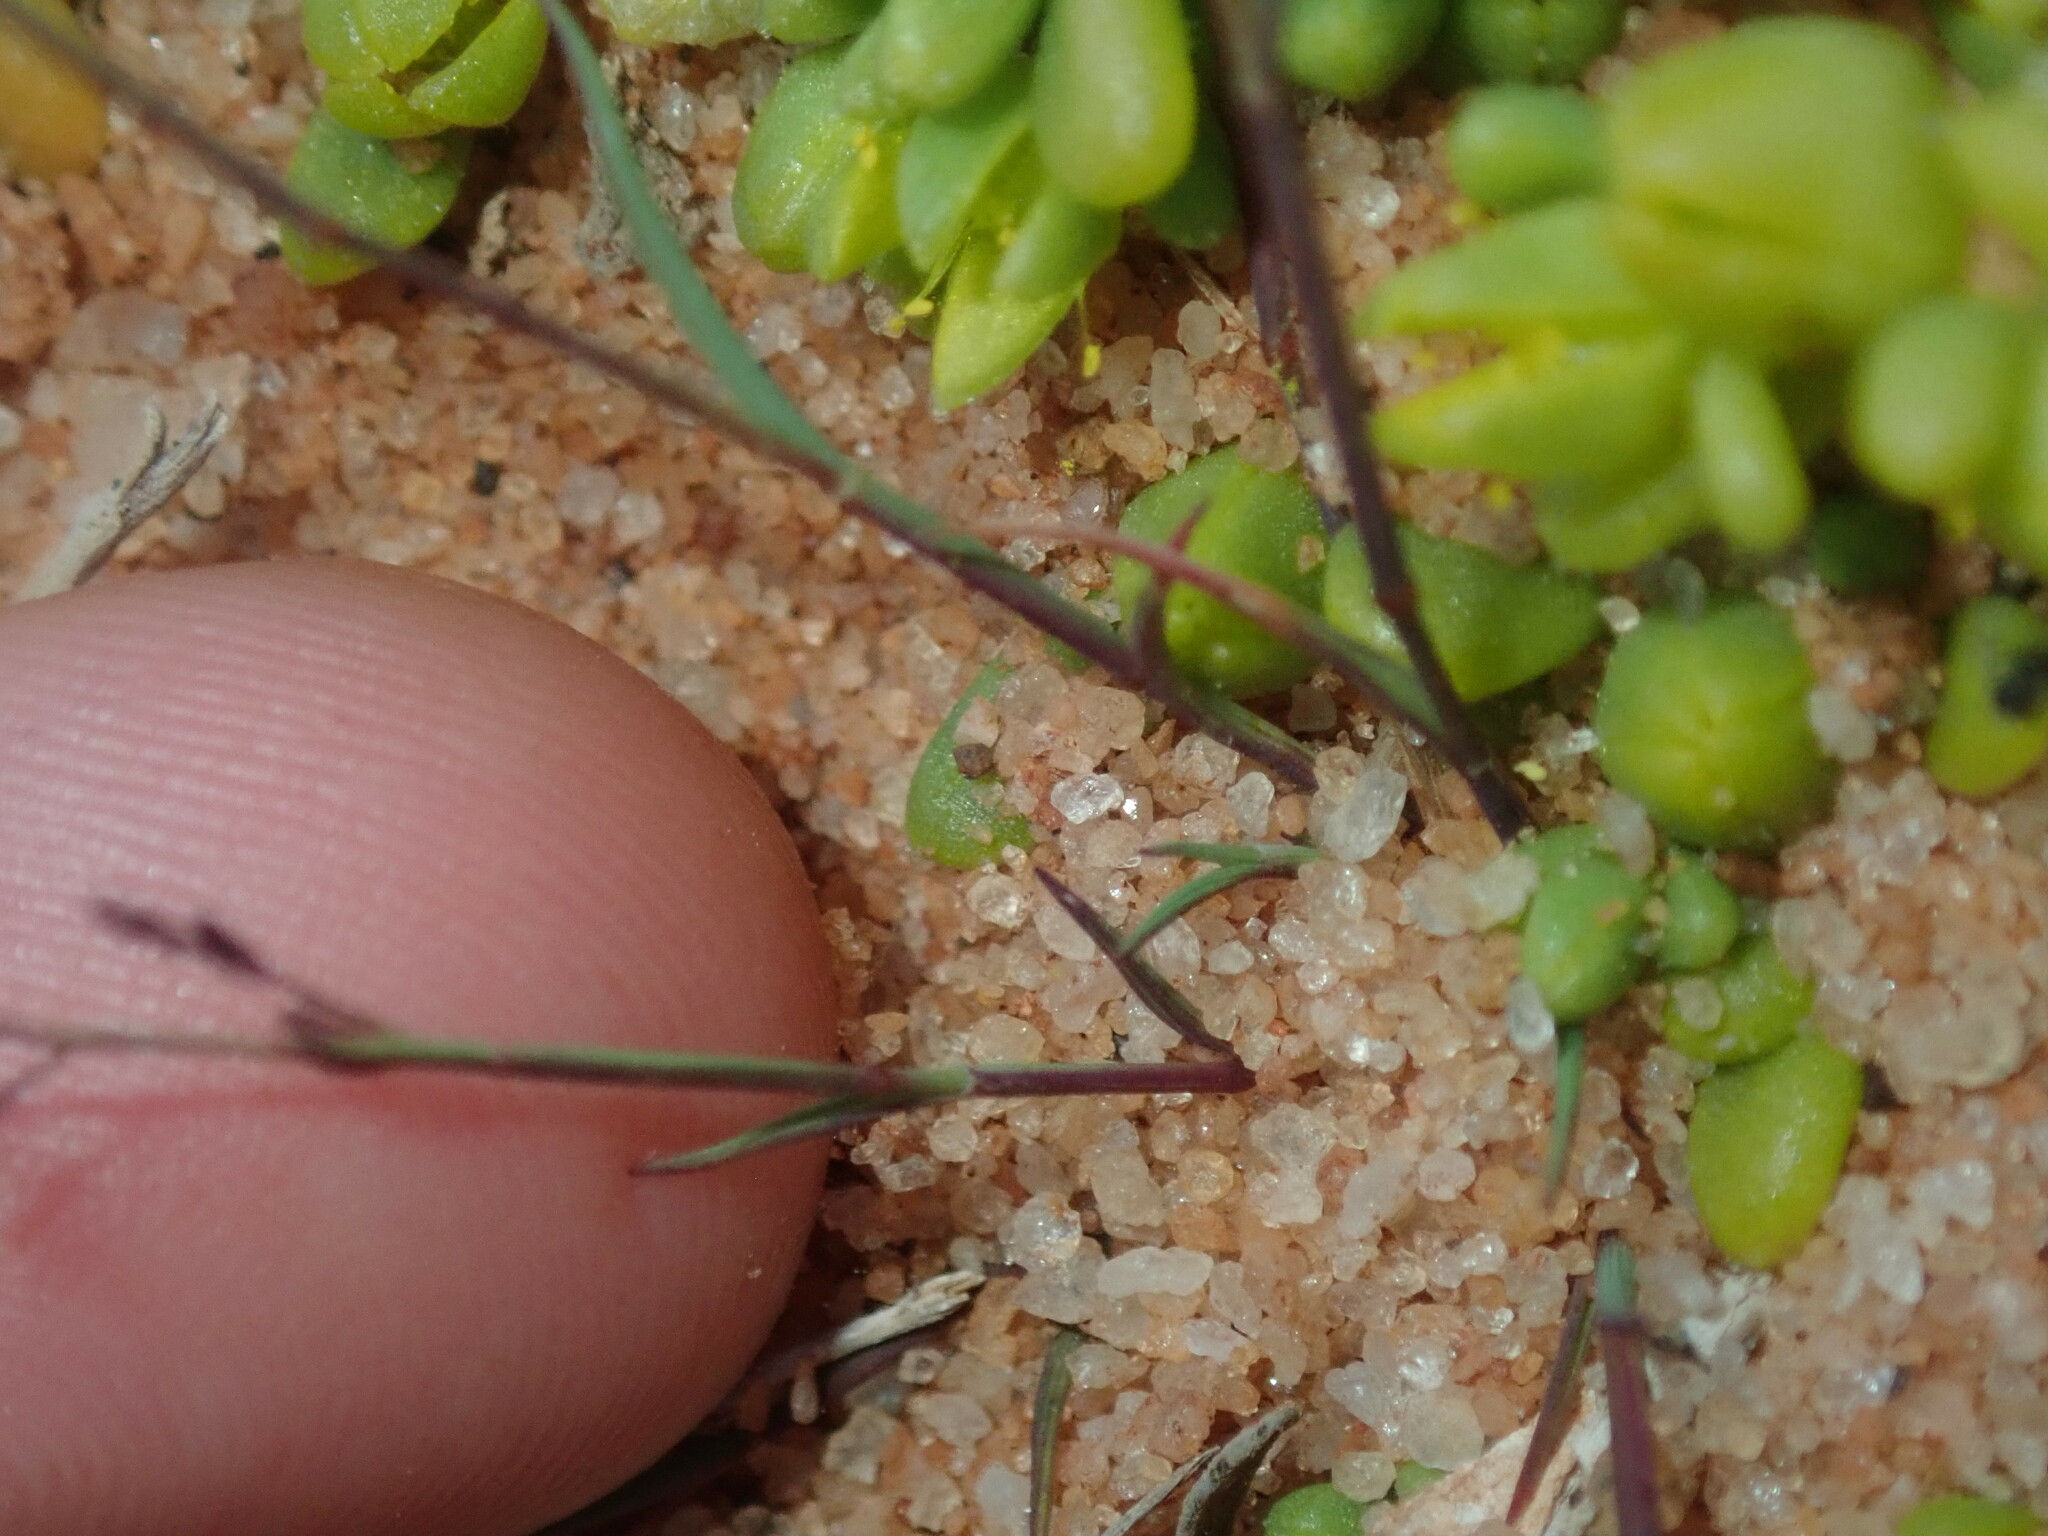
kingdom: Plantae
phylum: Tracheophyta
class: Liliopsida
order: Poales
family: Poaceae
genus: Eragrostis
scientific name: Eragrostis pergracilis
